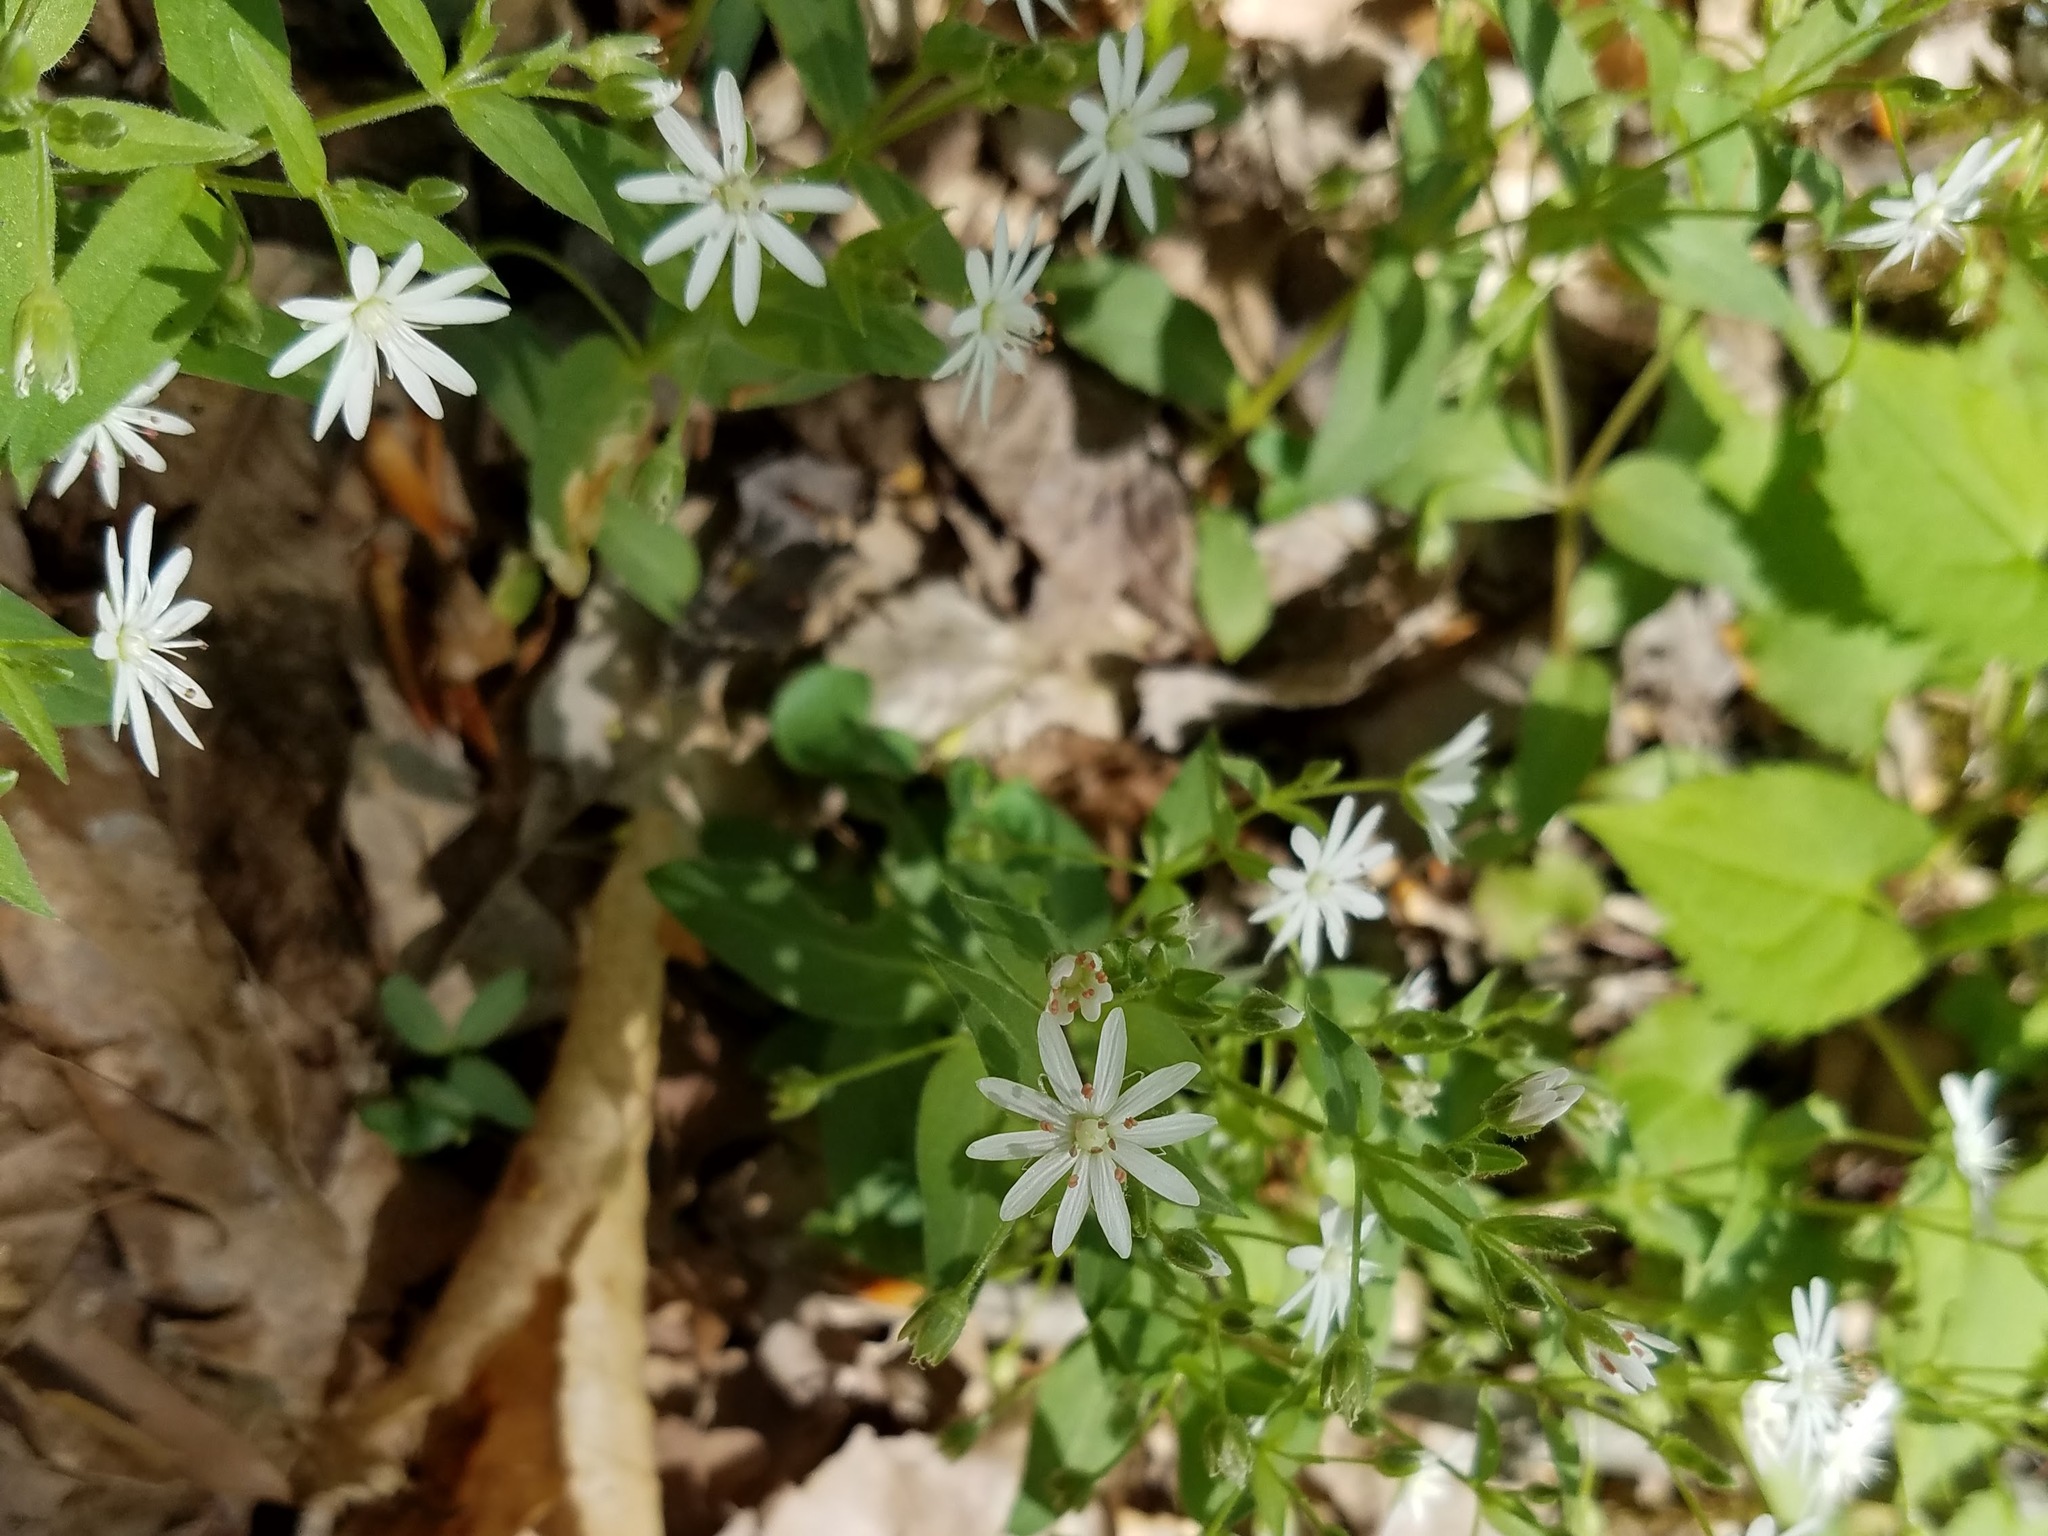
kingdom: Plantae
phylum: Tracheophyta
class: Magnoliopsida
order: Caryophyllales
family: Caryophyllaceae
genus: Stellaria
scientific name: Stellaria pubera
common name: Star chickweed
